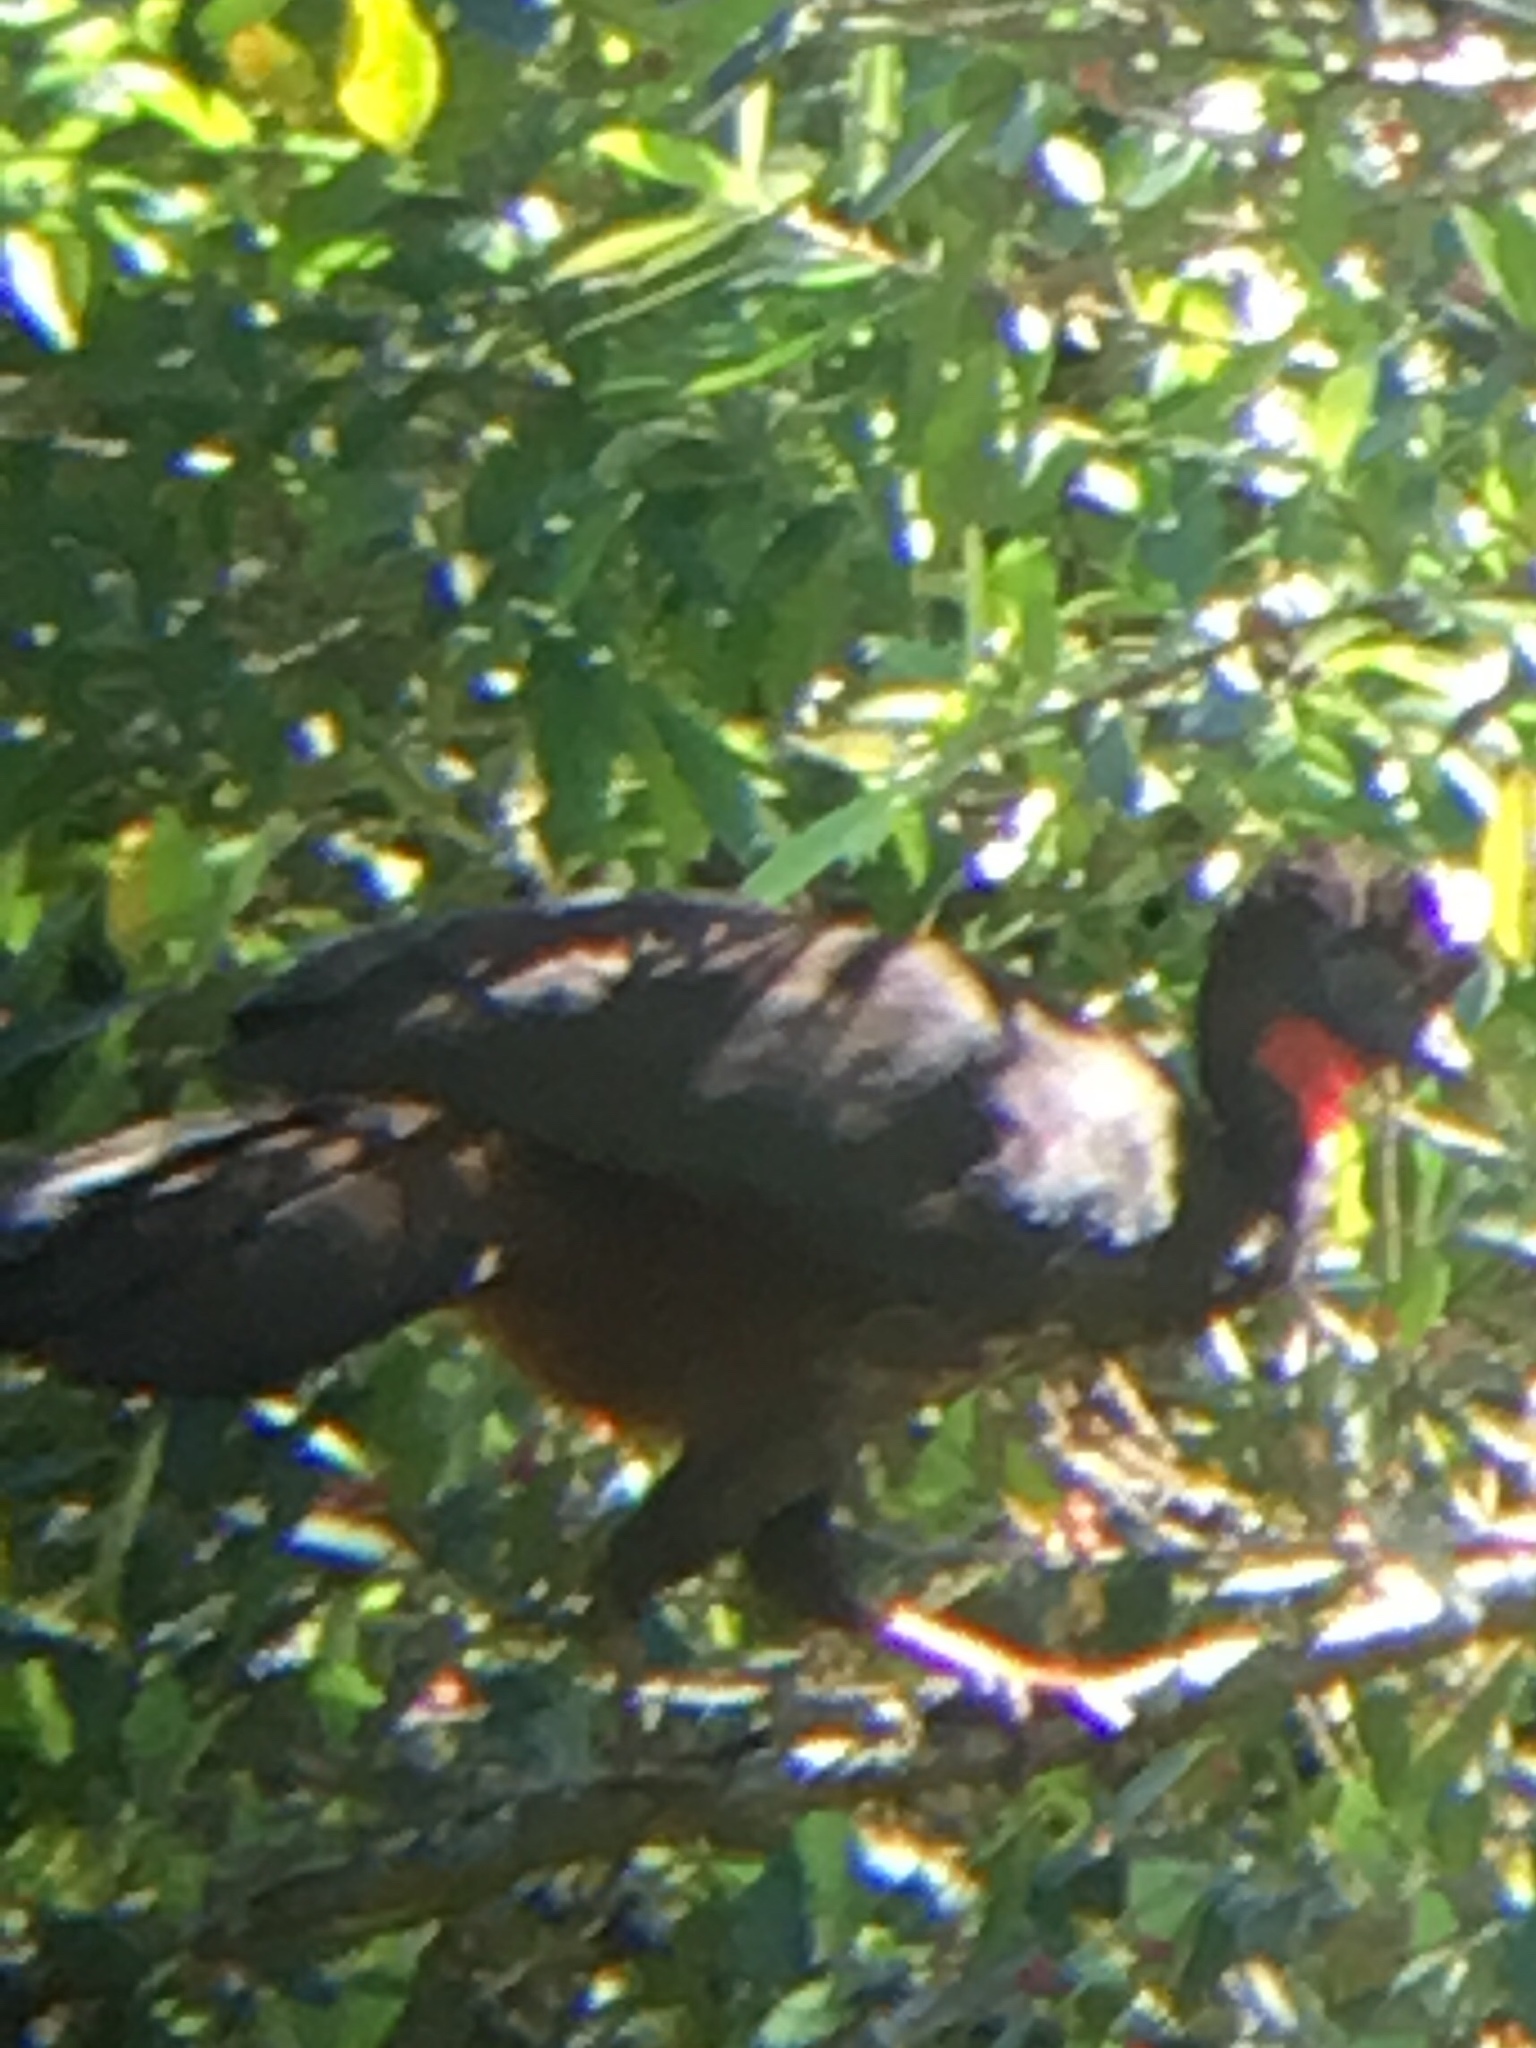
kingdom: Animalia
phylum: Chordata
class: Aves
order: Galliformes
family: Cracidae
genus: Penelope
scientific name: Penelope purpurascens
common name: Crested guan
